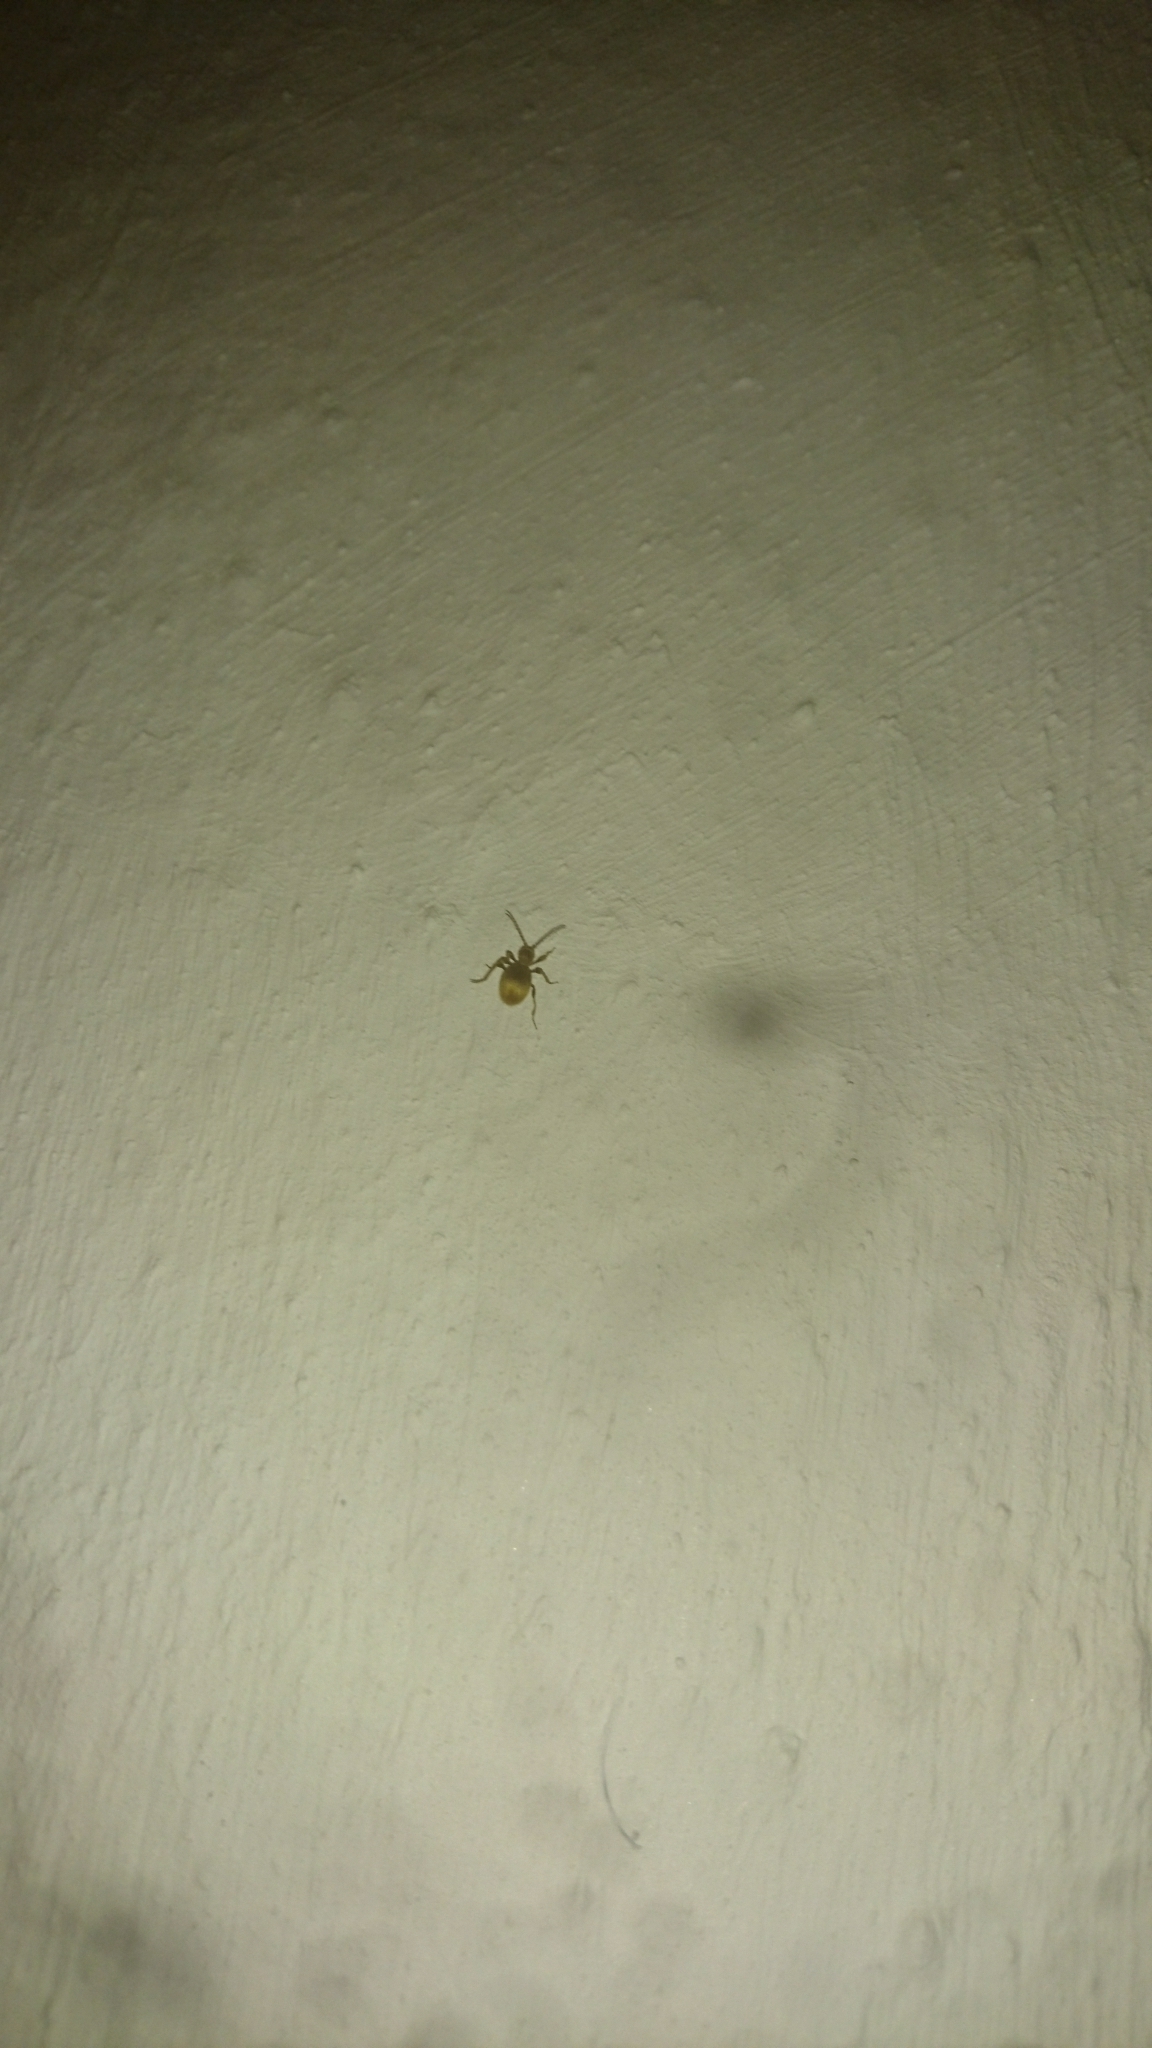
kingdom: Animalia
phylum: Arthropoda
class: Insecta
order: Coleoptera
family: Ptinidae
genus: Niptus
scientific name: Niptus hololeucus
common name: Golden spider beetle
